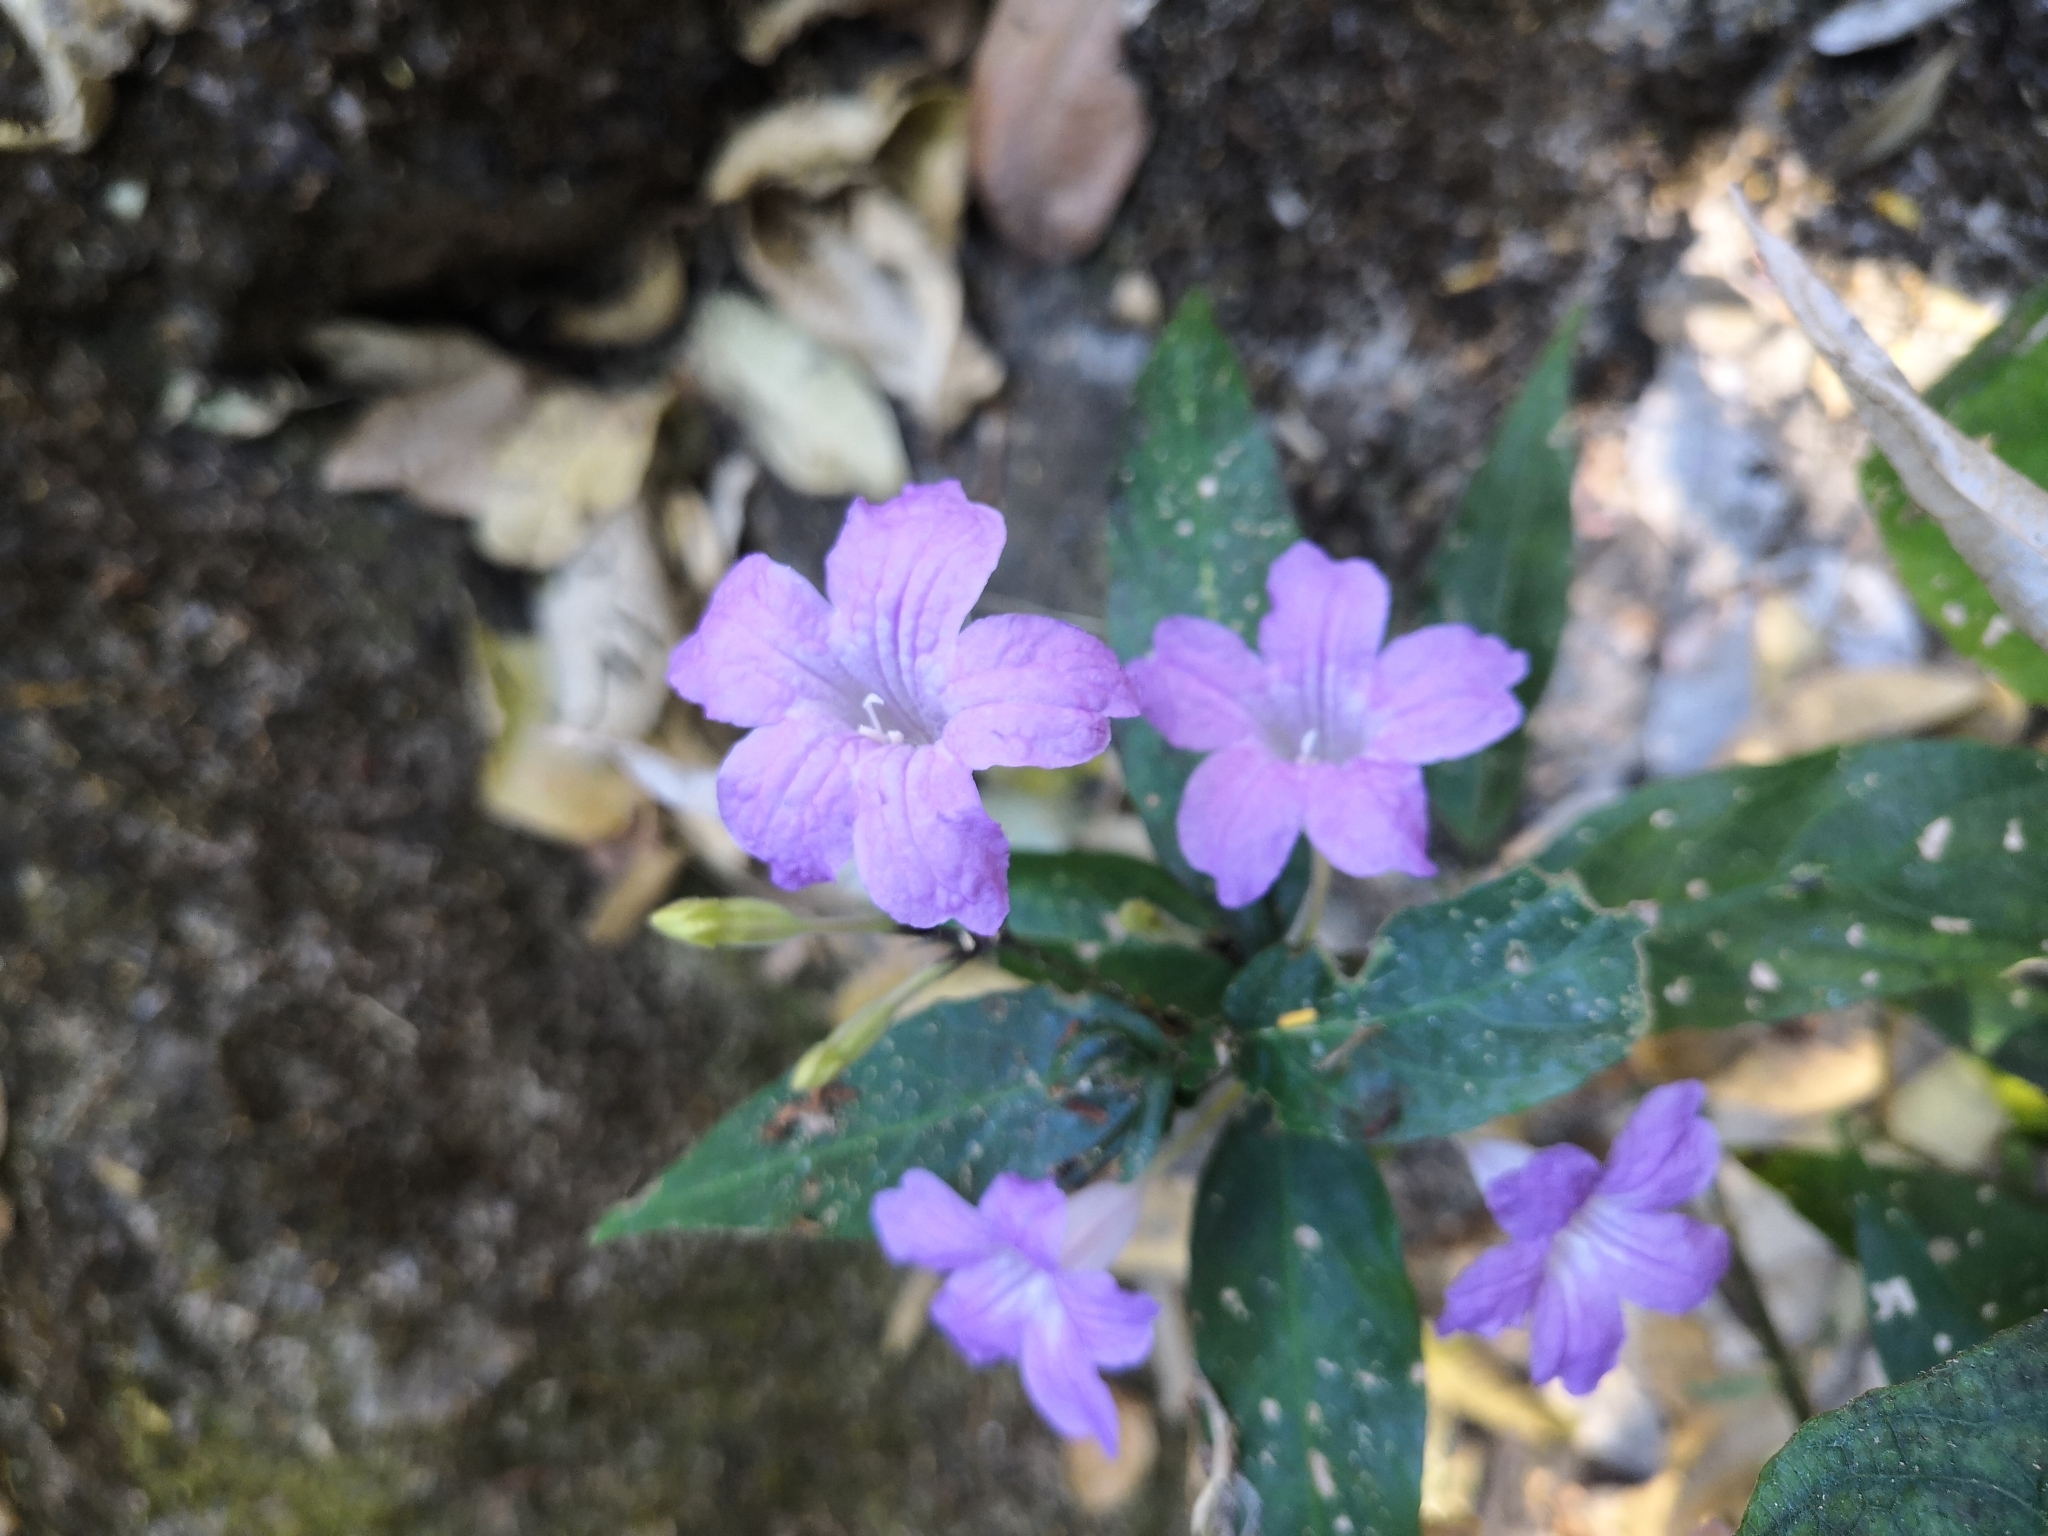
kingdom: Plantae
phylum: Tracheophyta
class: Magnoliopsida
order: Lamiales
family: Acanthaceae
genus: Ruellia
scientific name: Ruellia simplex
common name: Softseed wild petunia
